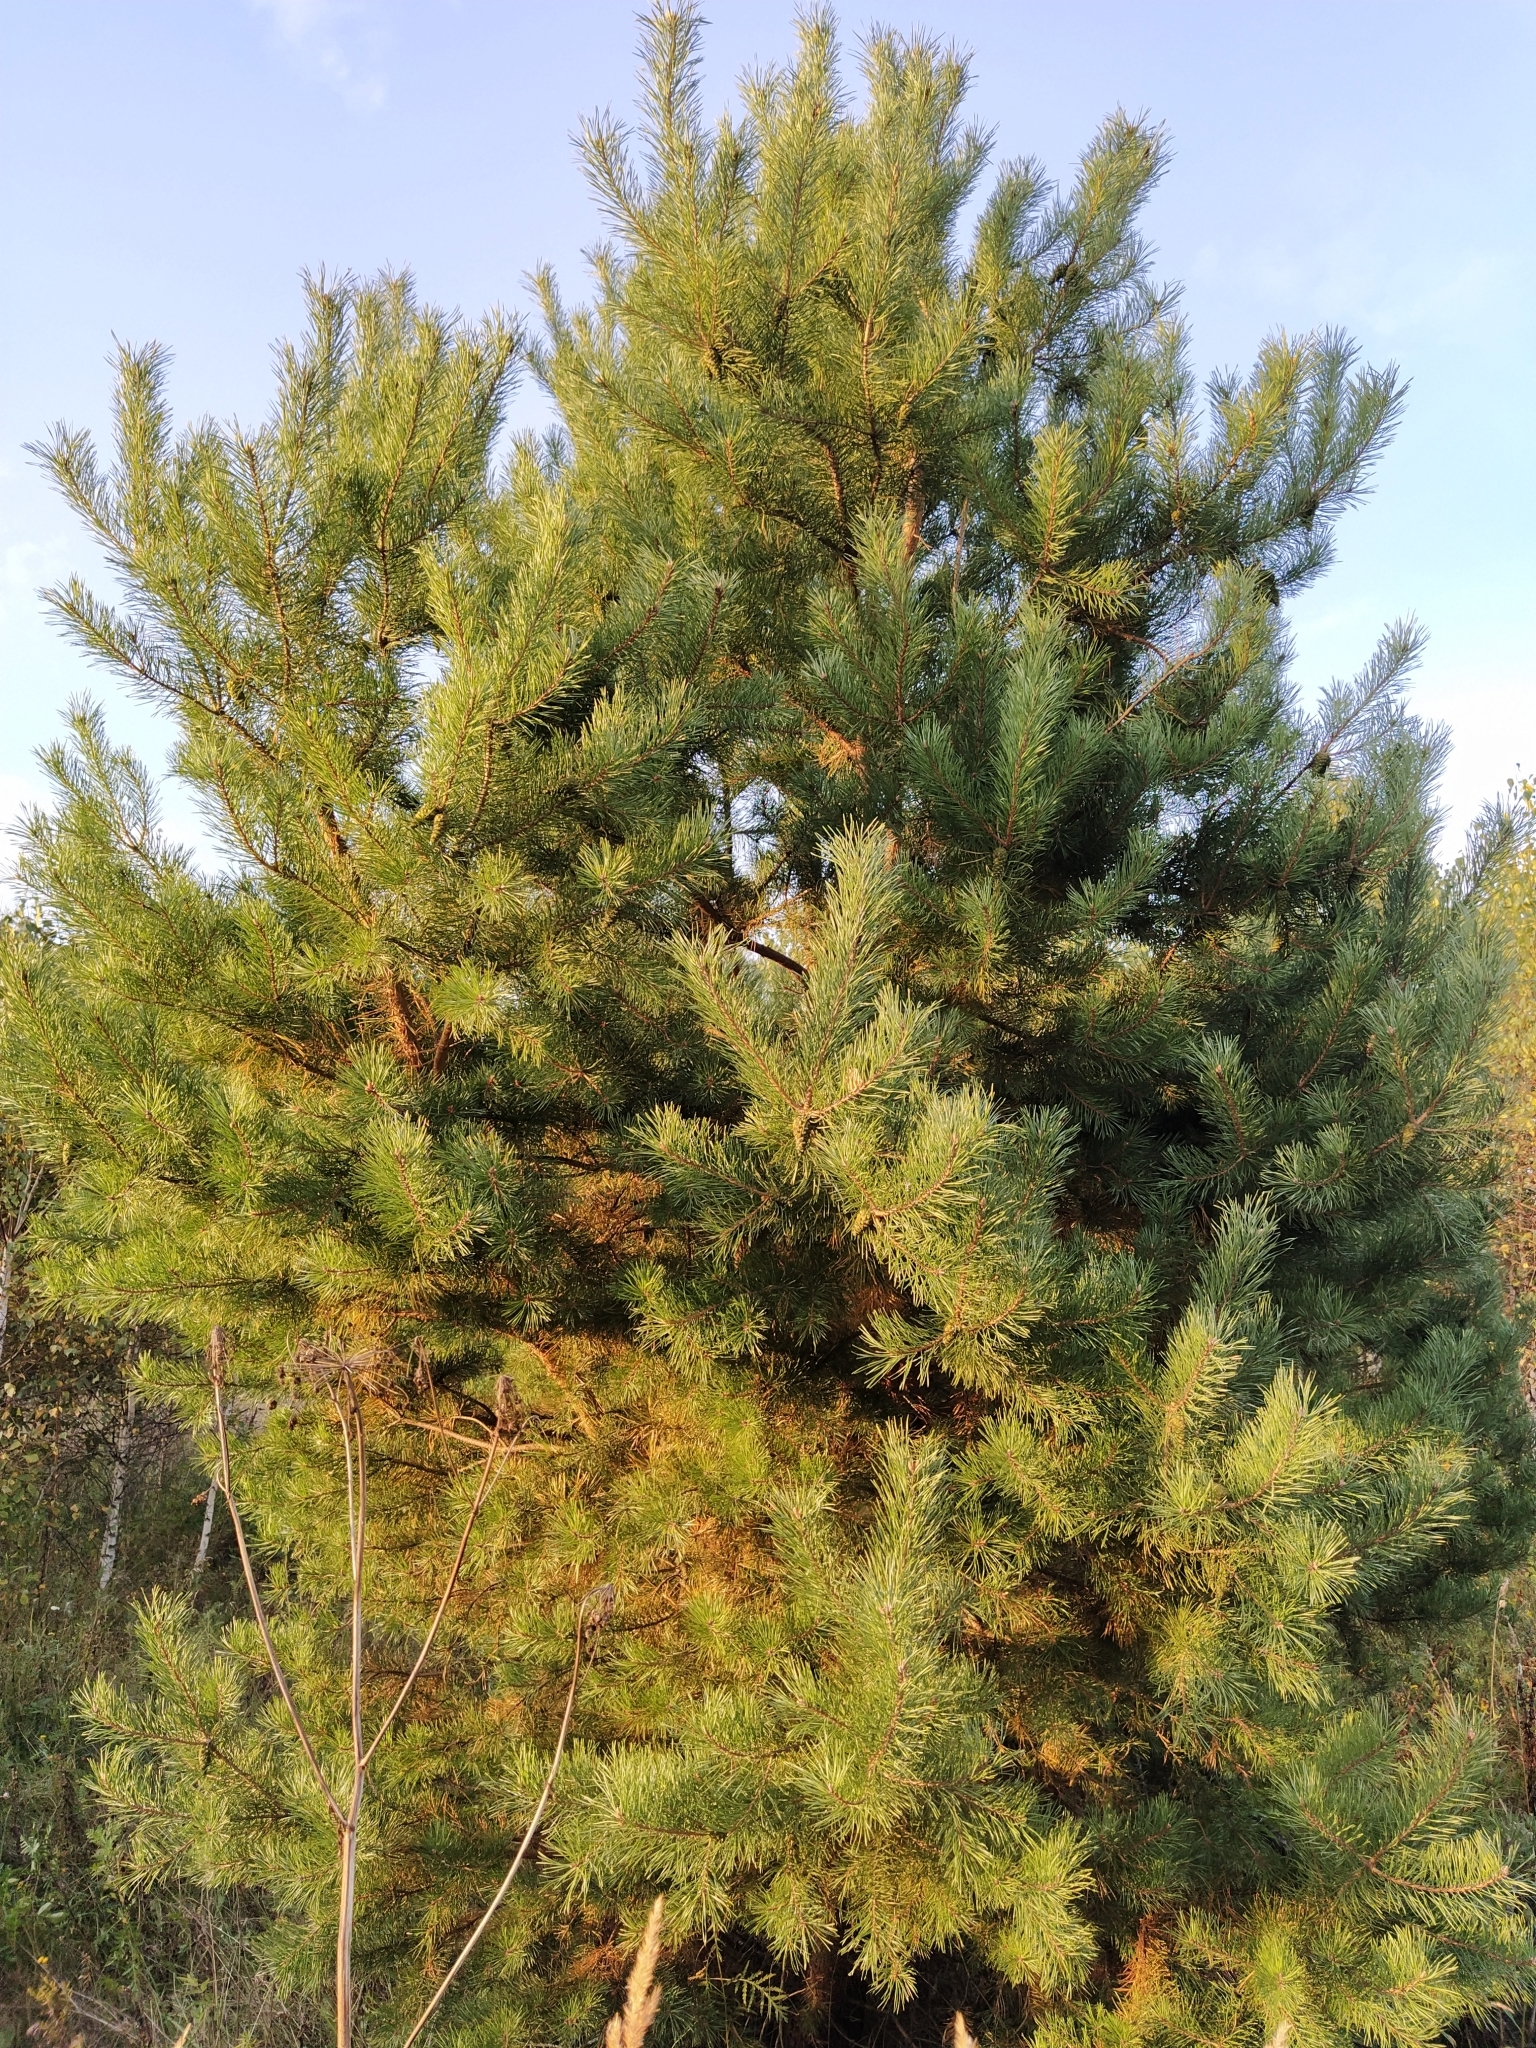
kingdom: Plantae
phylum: Tracheophyta
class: Pinopsida
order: Pinales
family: Pinaceae
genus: Pinus
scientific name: Pinus sylvestris
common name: Scots pine
